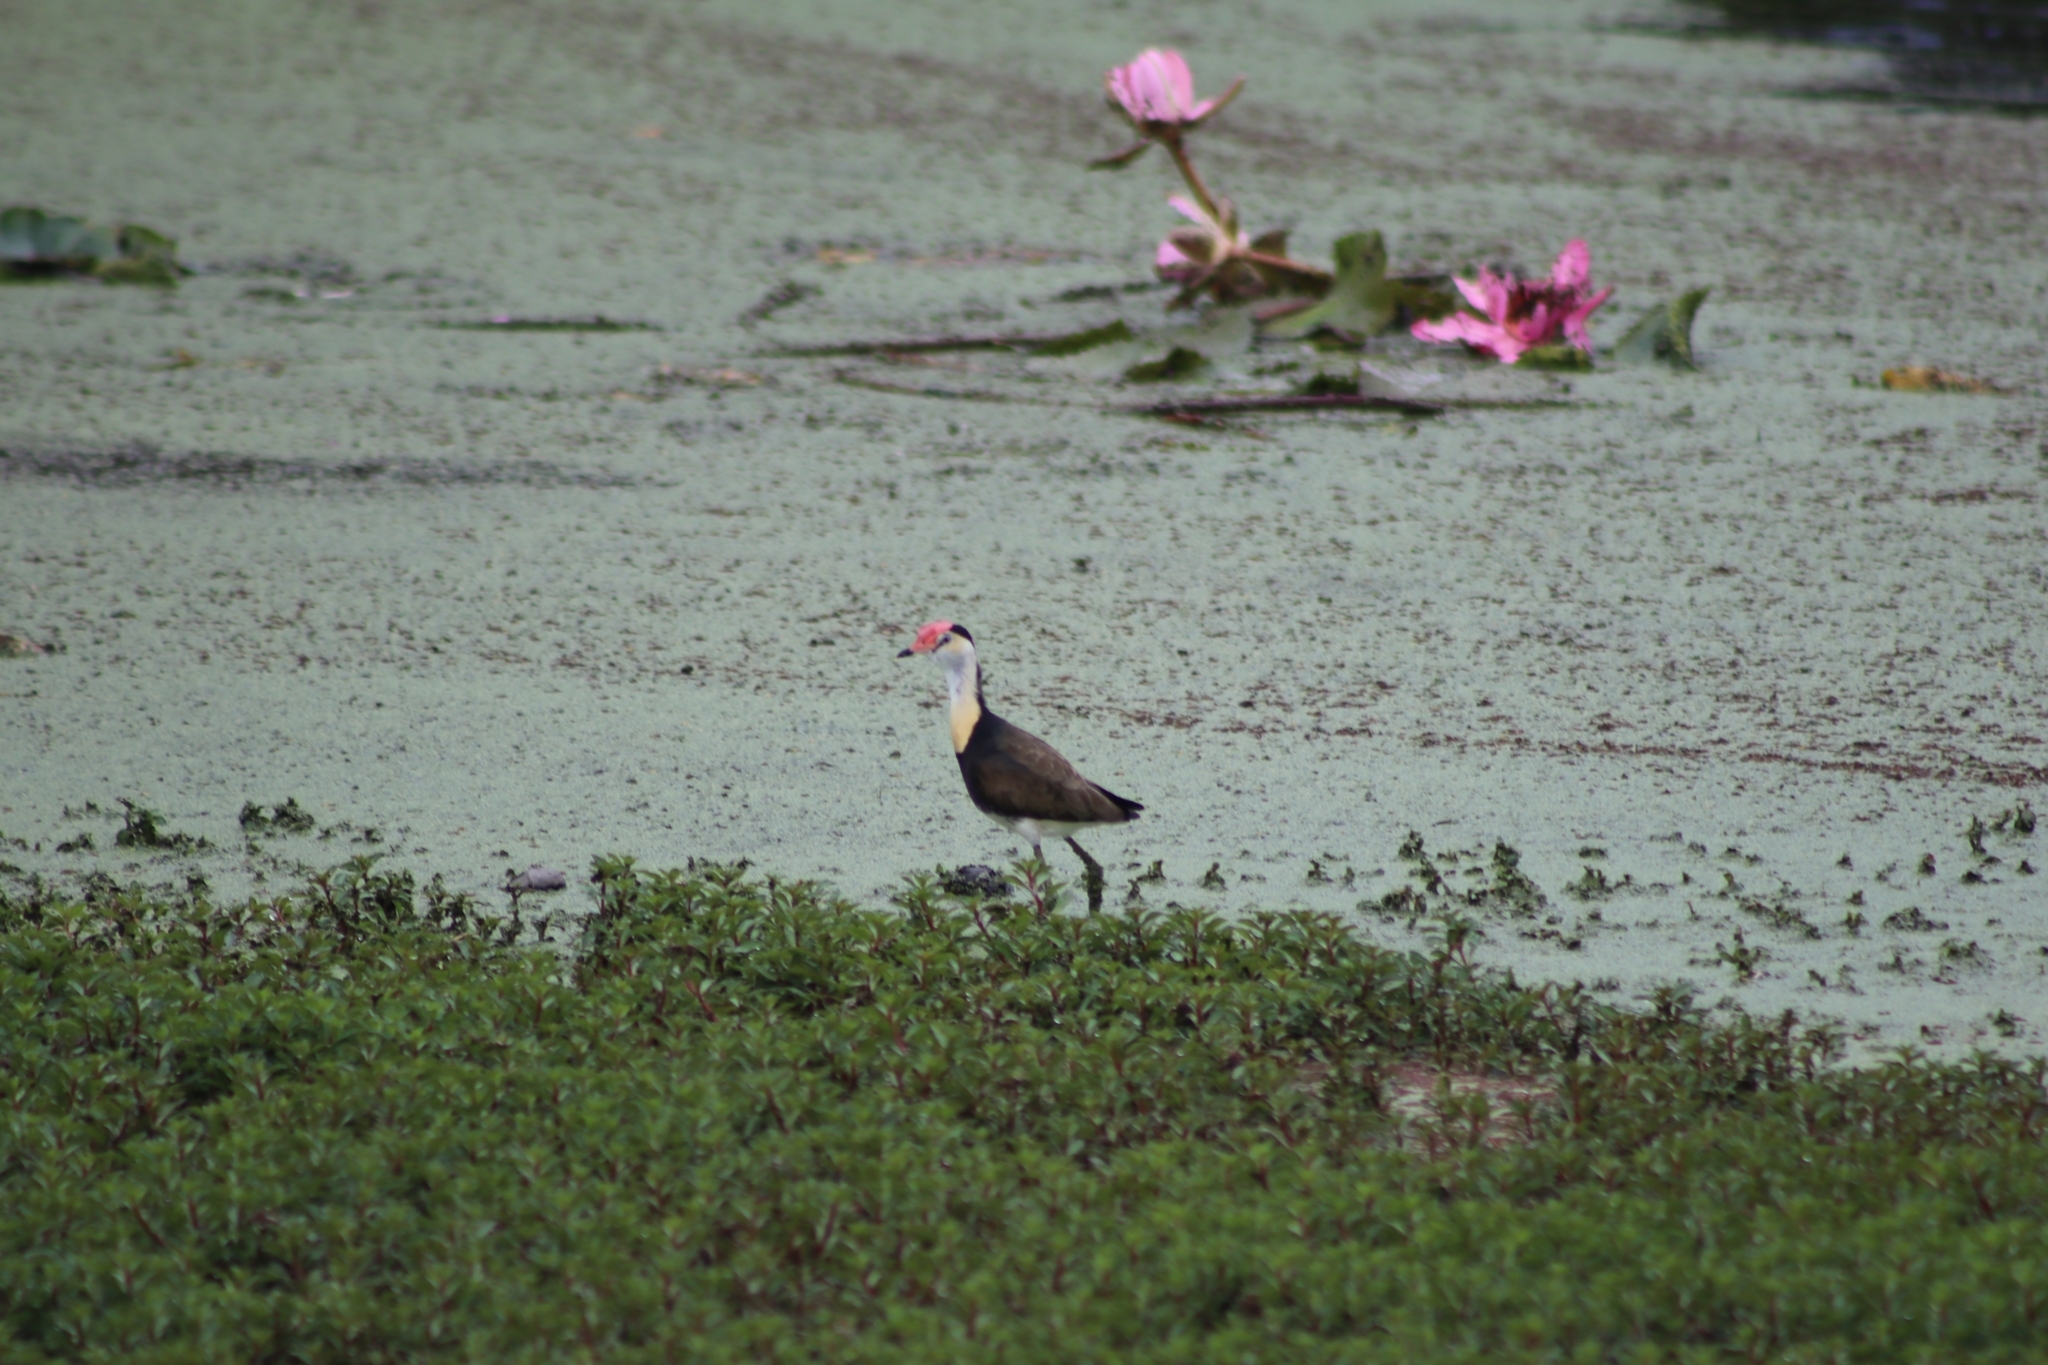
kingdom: Animalia
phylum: Chordata
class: Aves
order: Charadriiformes
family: Jacanidae
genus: Irediparra
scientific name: Irediparra gallinacea
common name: Comb-crested jacana
